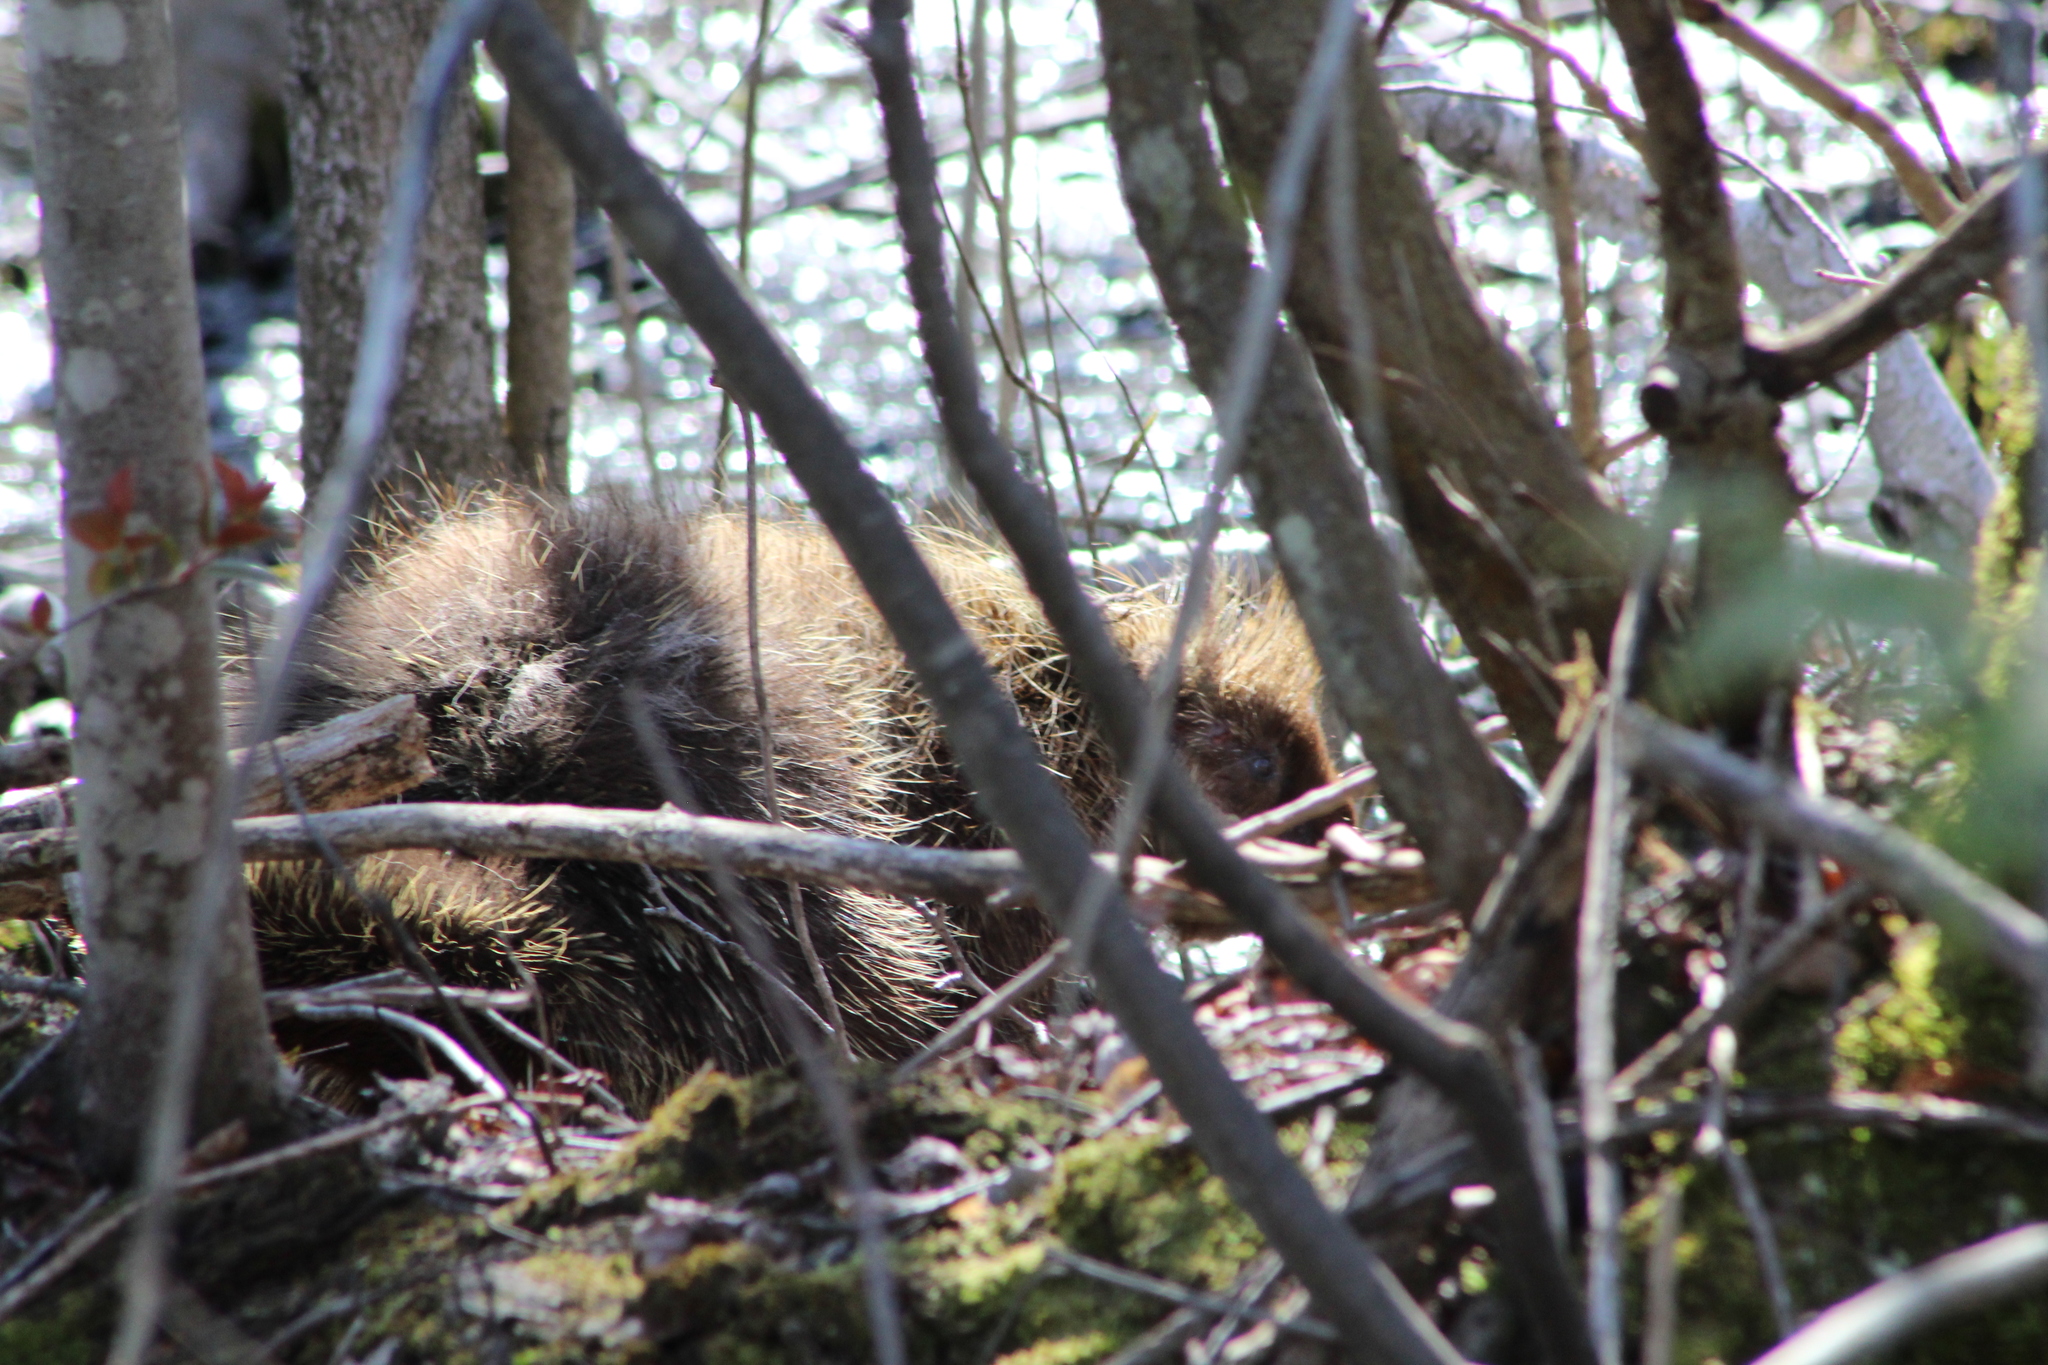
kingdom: Animalia
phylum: Chordata
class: Mammalia
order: Rodentia
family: Erethizontidae
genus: Erethizon
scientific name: Erethizon dorsatus
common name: North american porcupine
